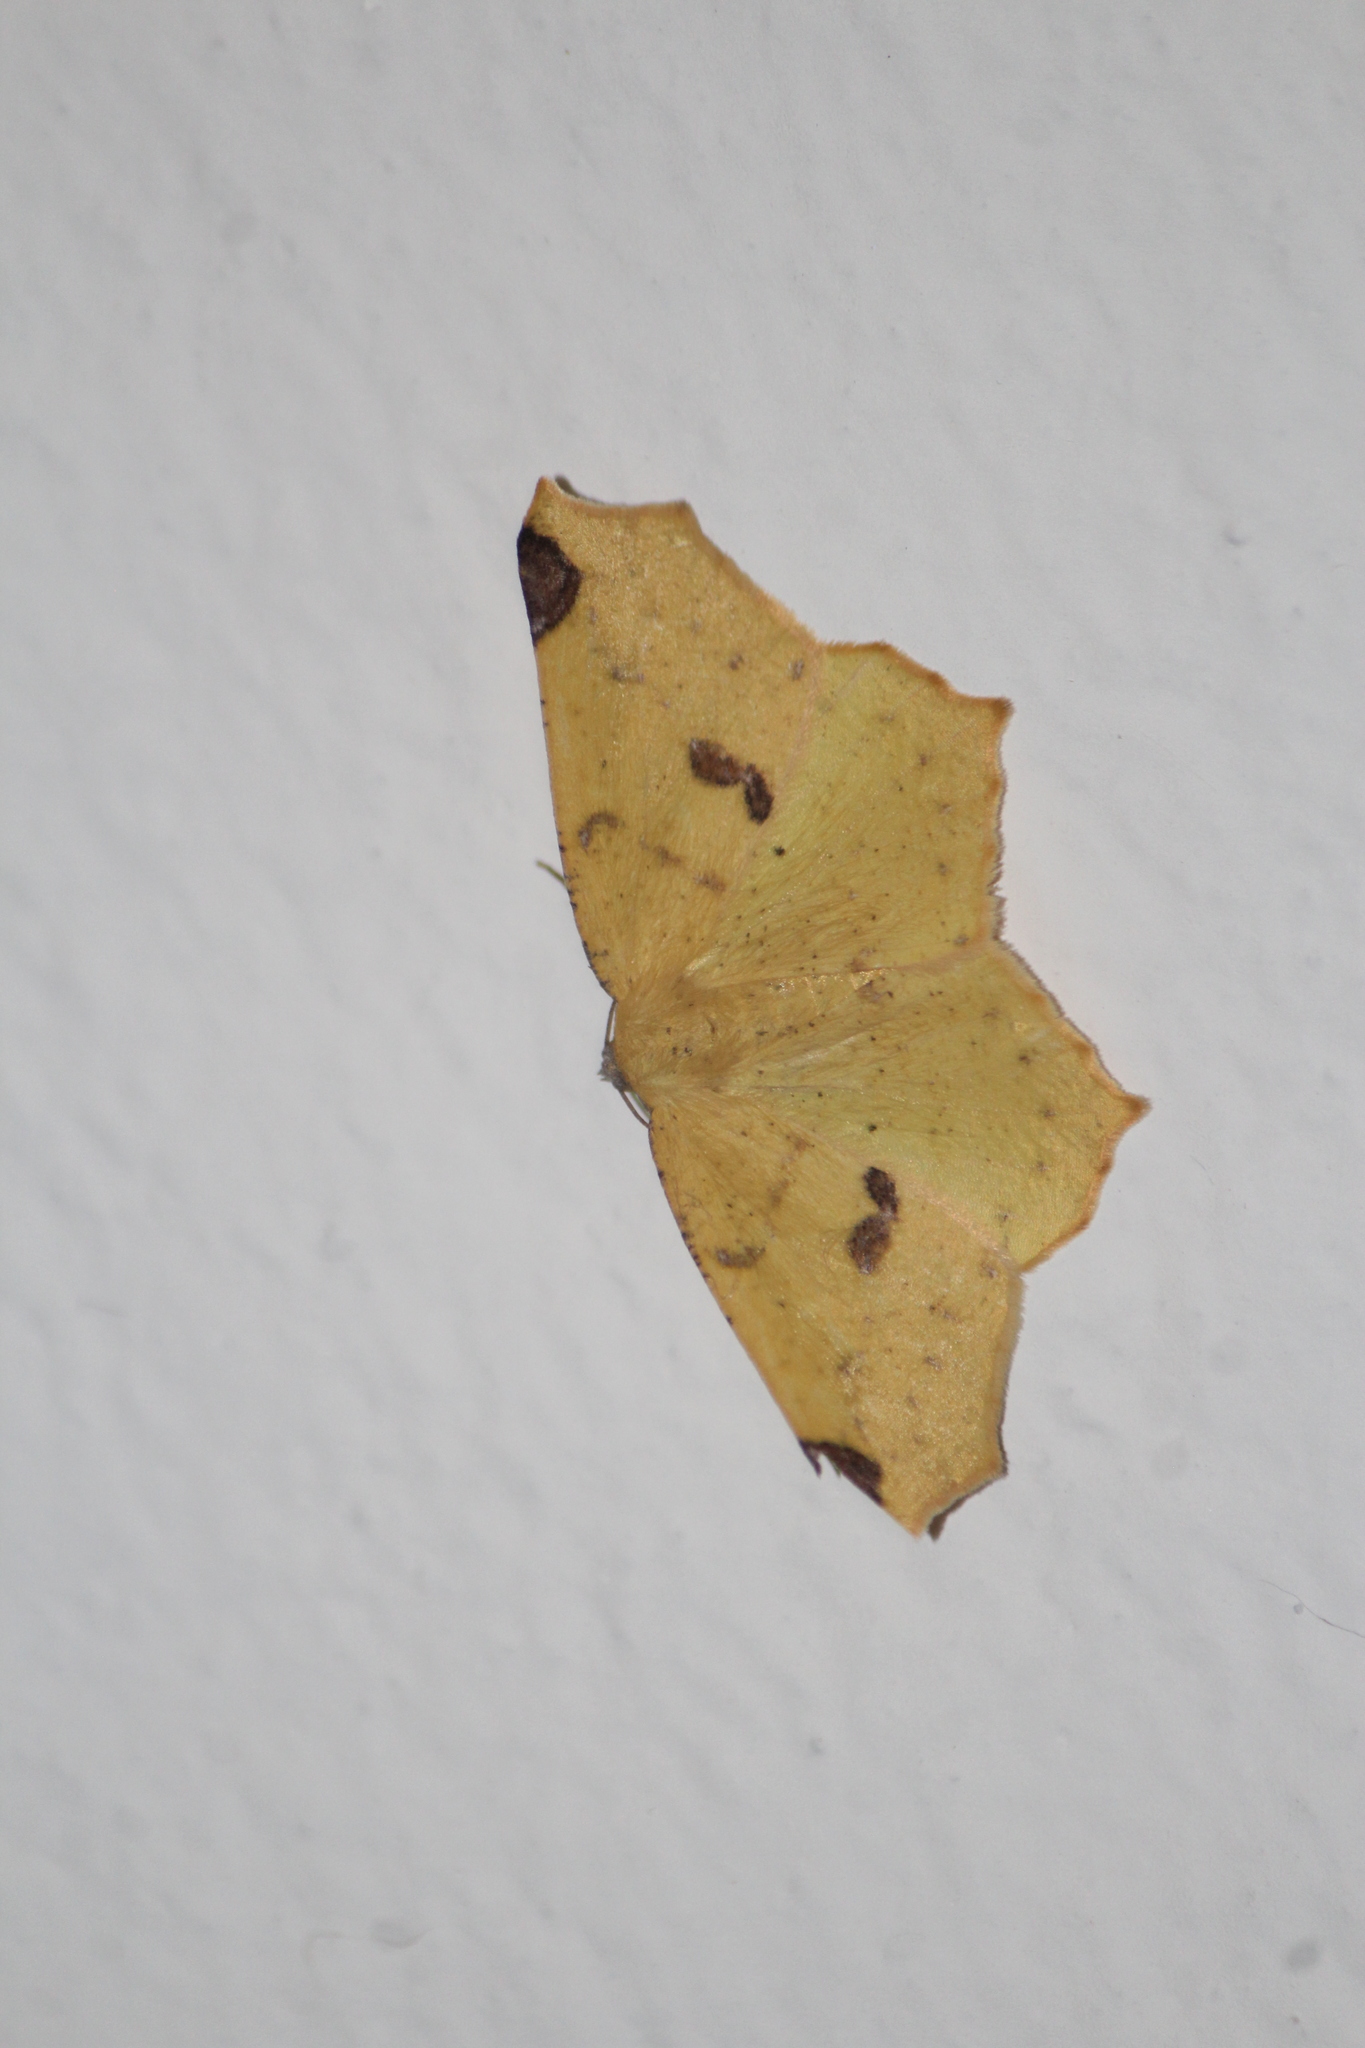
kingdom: Animalia
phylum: Arthropoda
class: Insecta
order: Lepidoptera
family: Geometridae
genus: Antepione
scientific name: Antepione thisoaria
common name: Variable antipione
